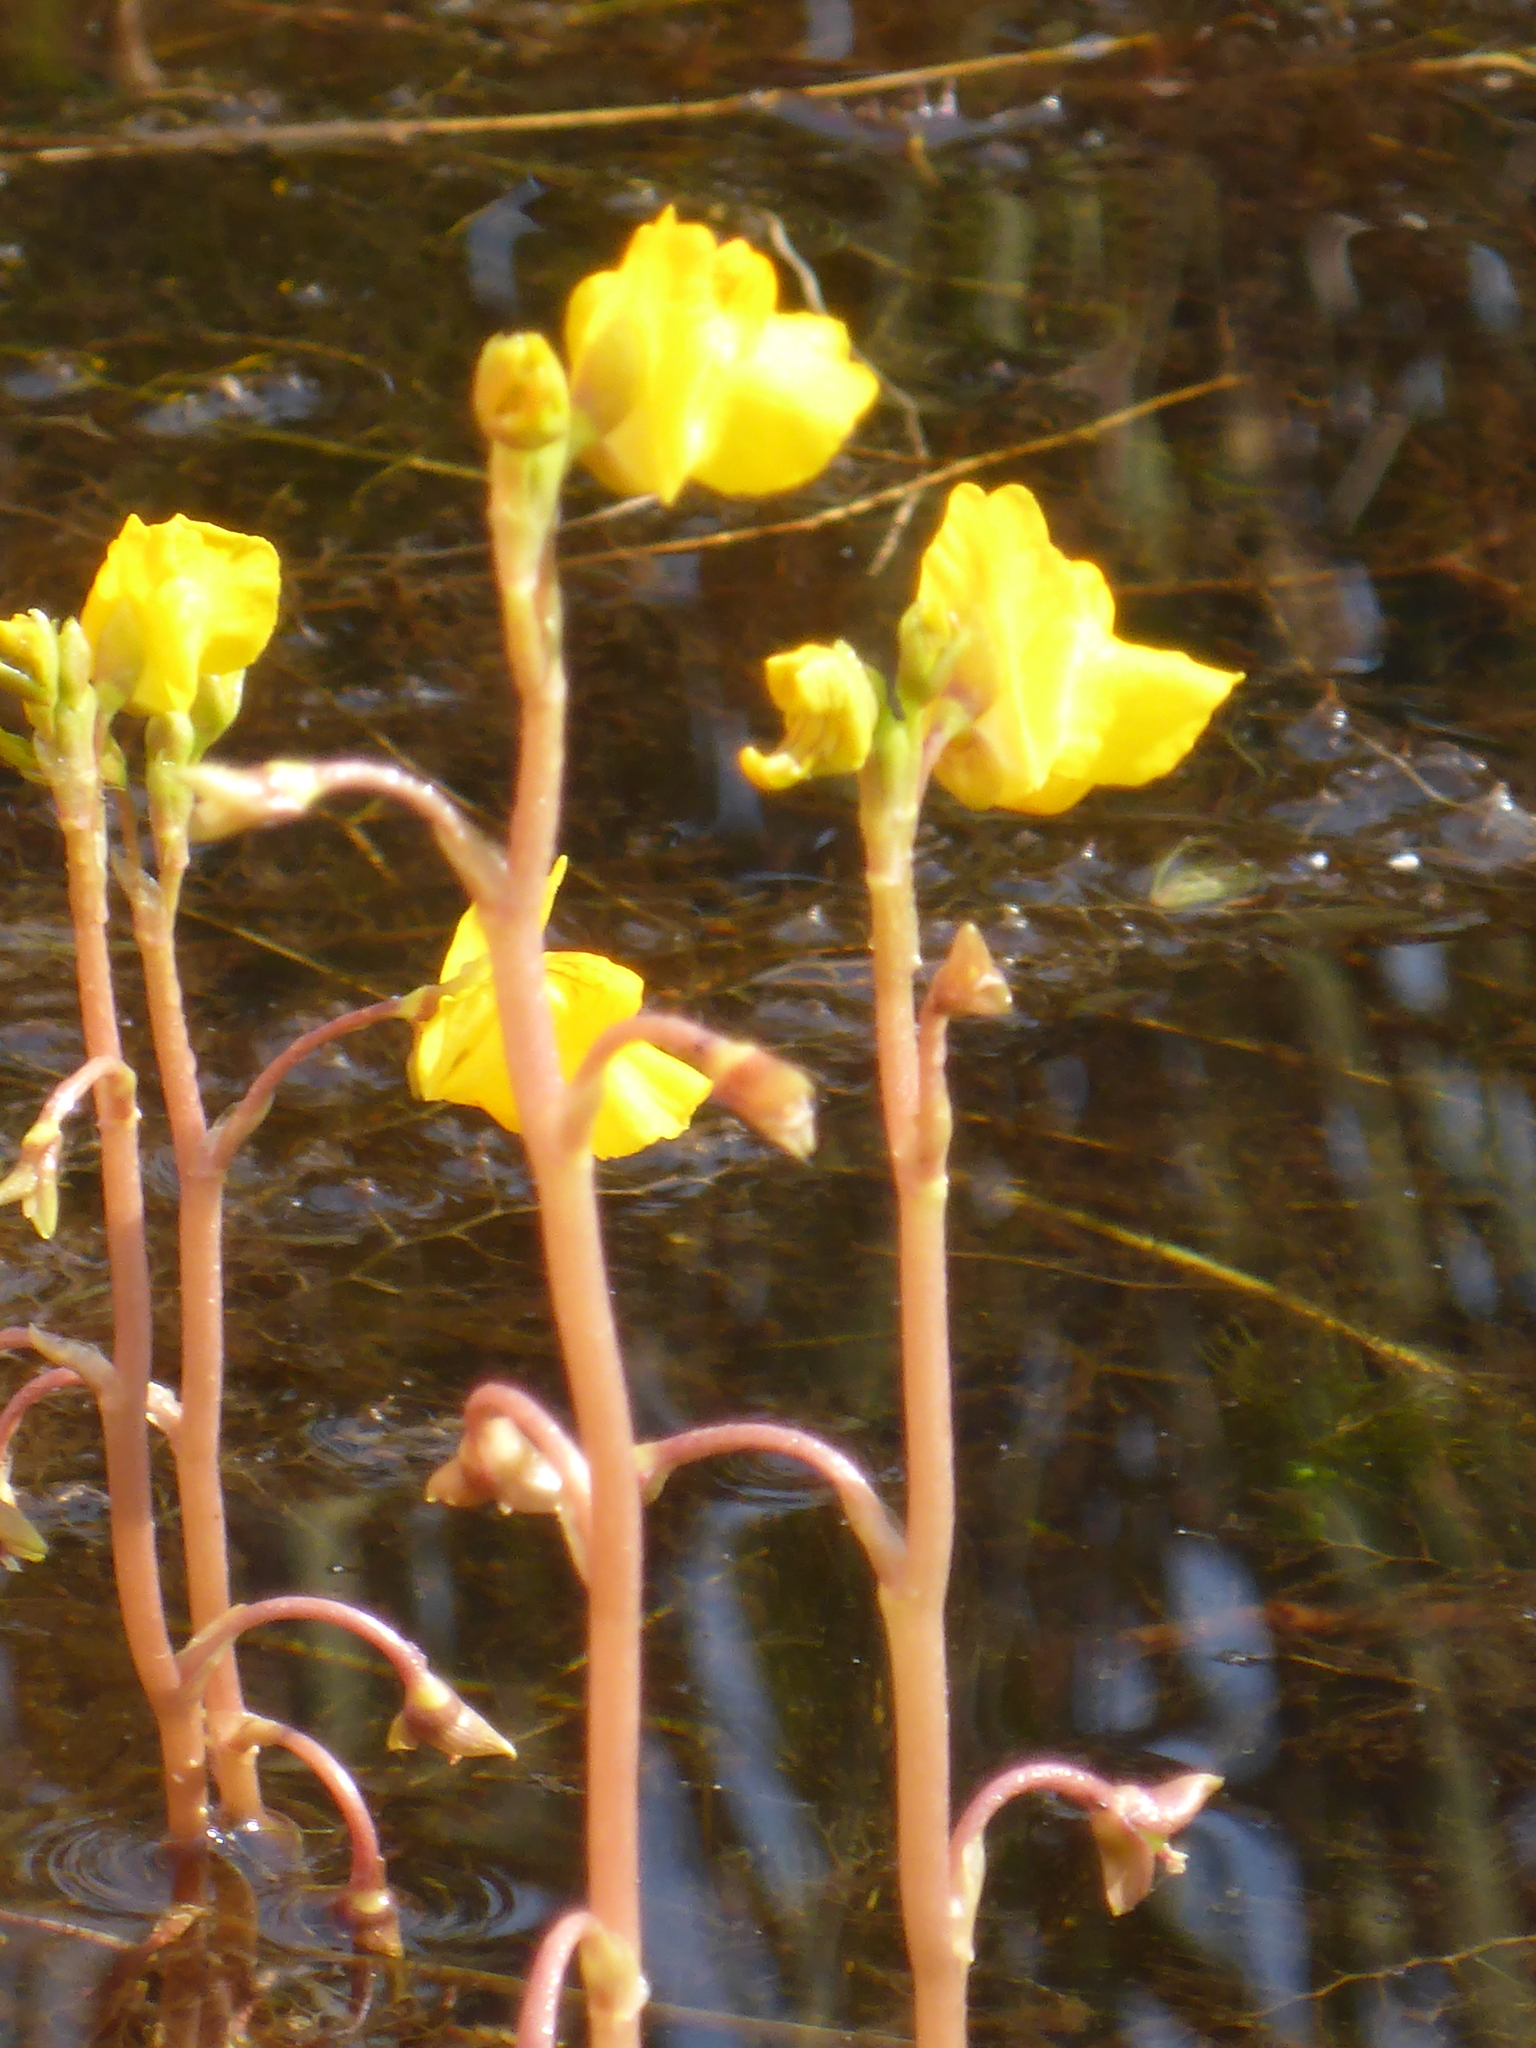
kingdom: Plantae
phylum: Tracheophyta
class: Magnoliopsida
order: Lamiales
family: Lentibulariaceae
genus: Utricularia
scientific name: Utricularia macrorhiza
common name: Common bladderwort
